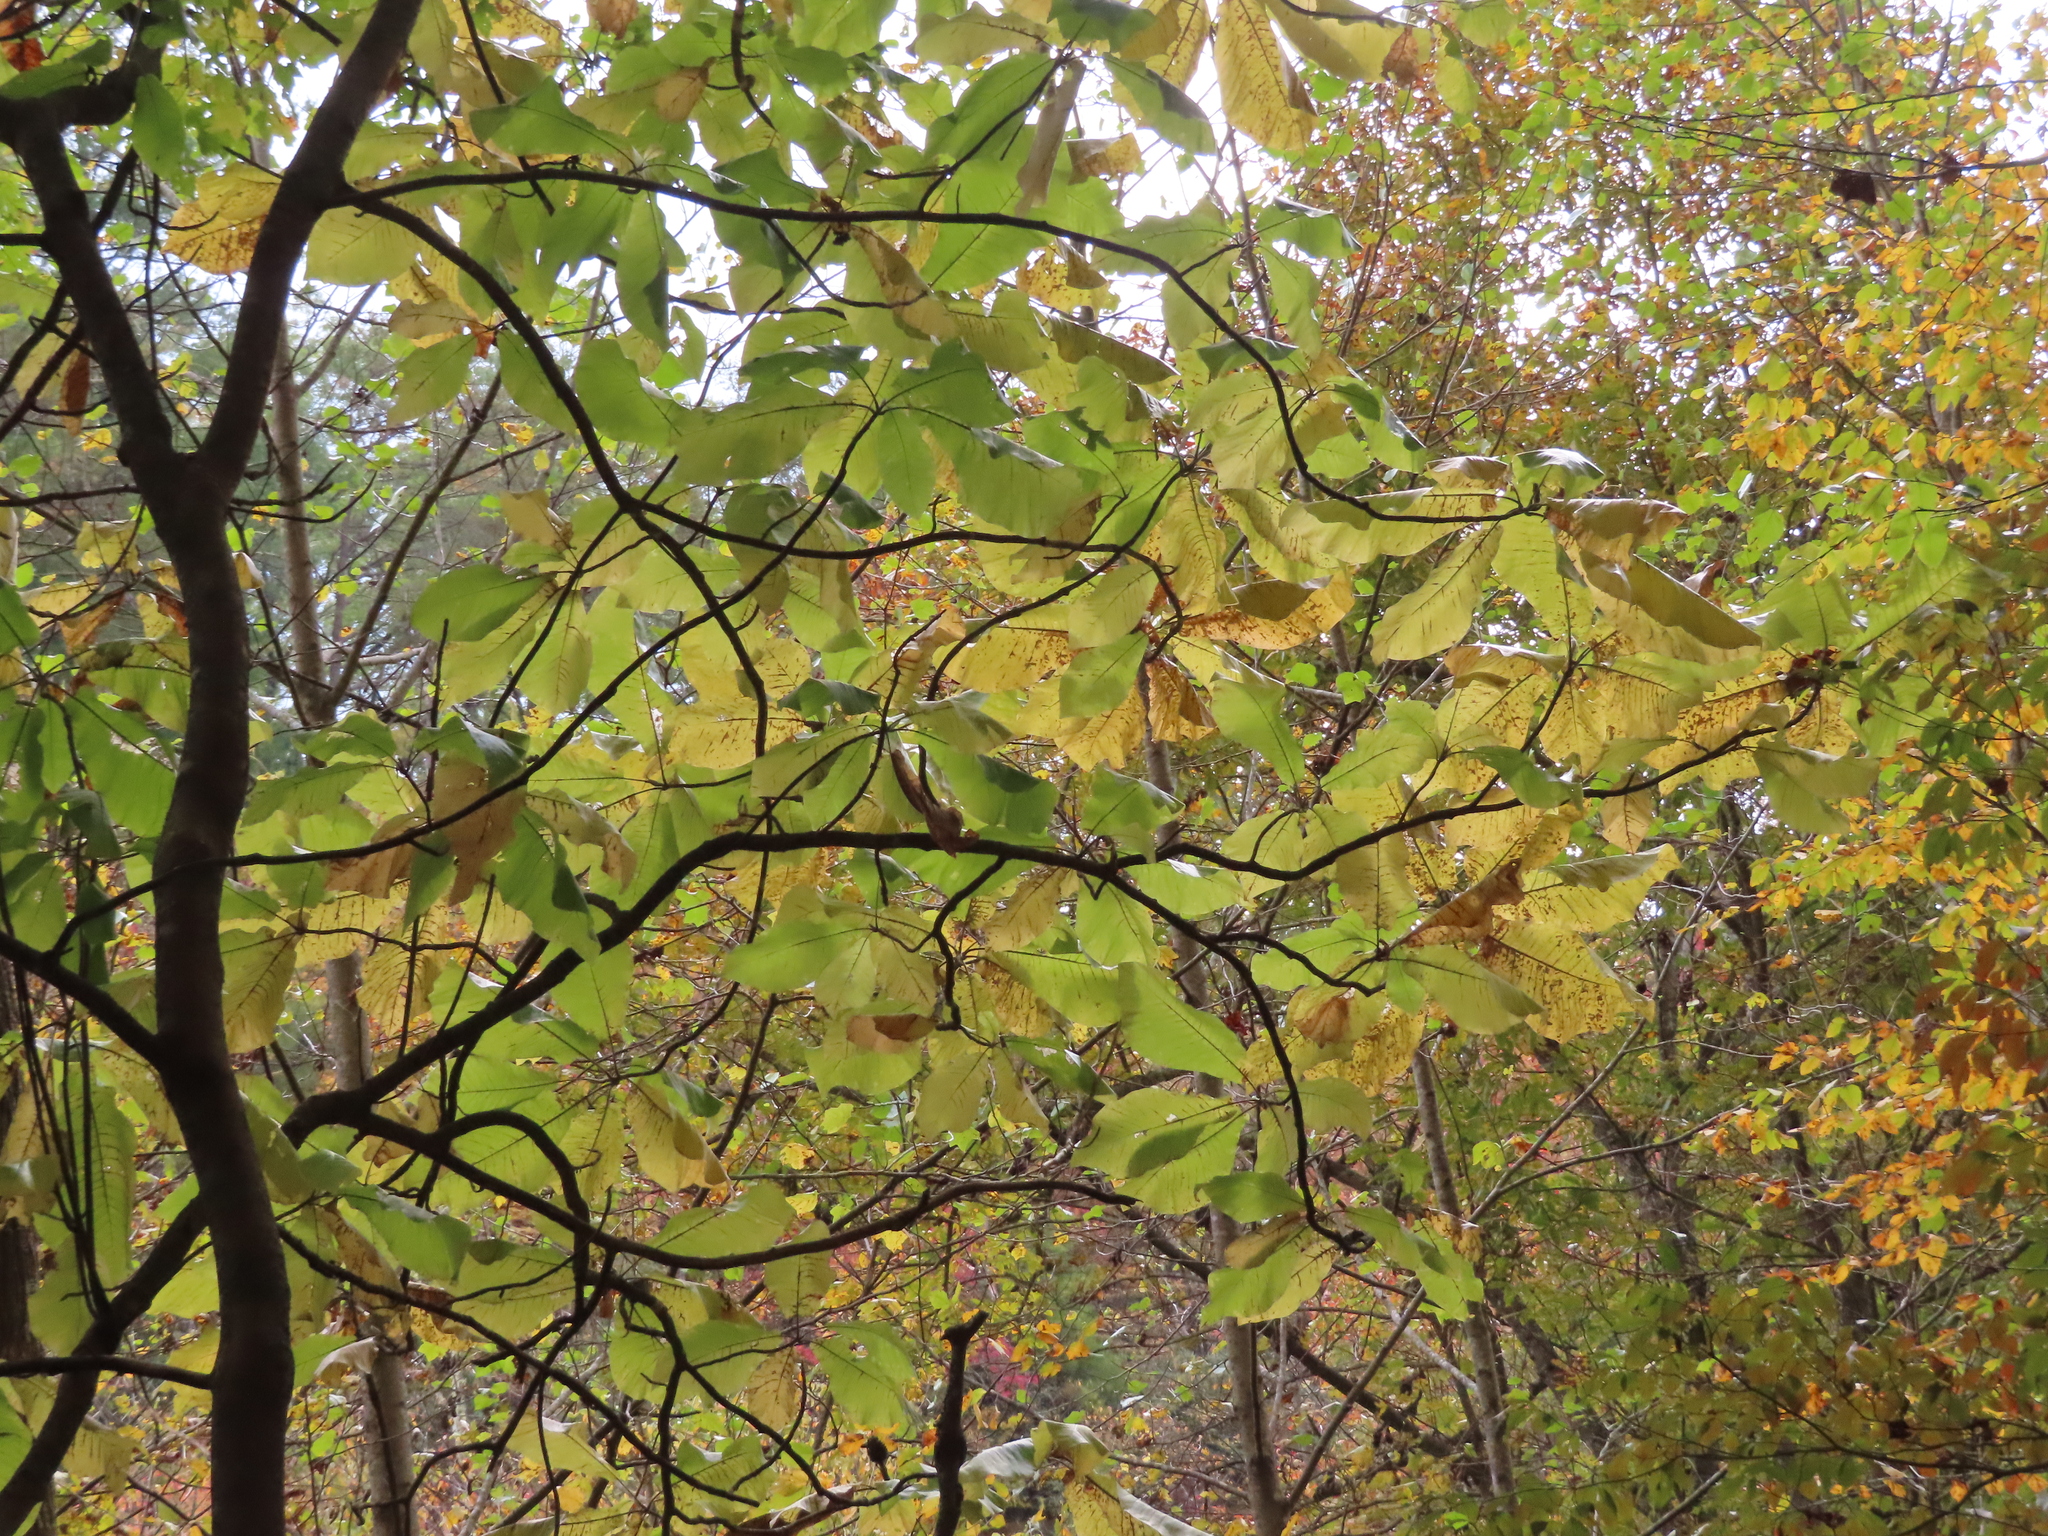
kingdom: Plantae
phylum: Tracheophyta
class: Magnoliopsida
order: Magnoliales
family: Magnoliaceae
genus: Magnolia
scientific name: Magnolia macrophylla
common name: Big-leaf magnolia
